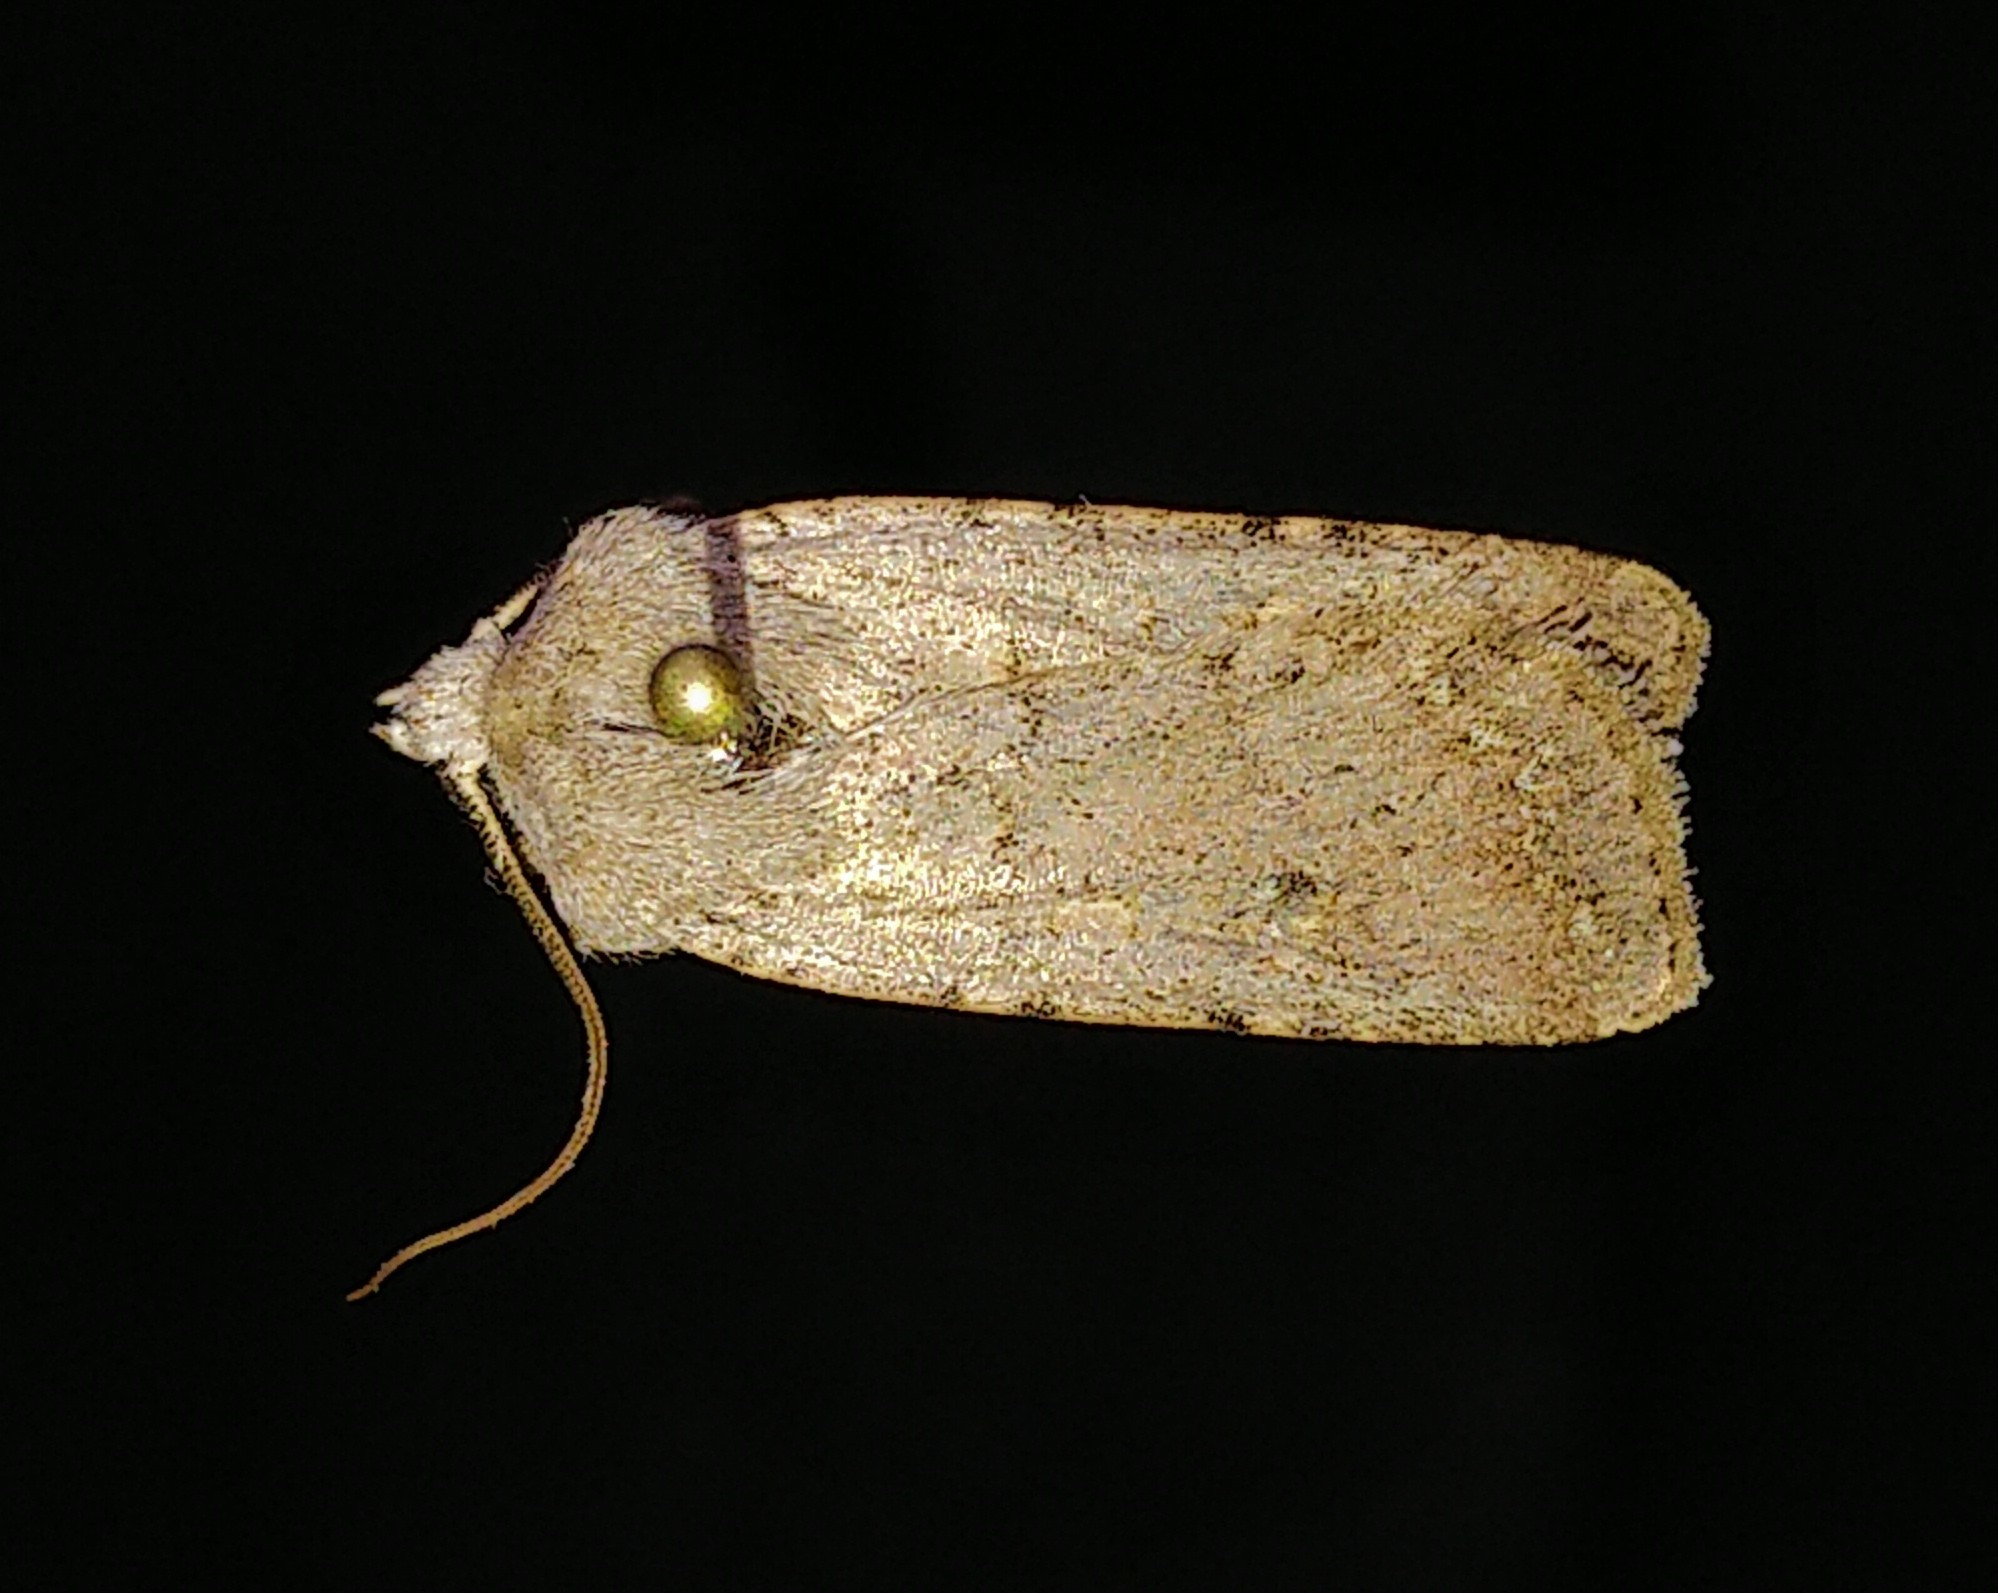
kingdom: Animalia
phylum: Arthropoda
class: Insecta
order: Lepidoptera
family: Noctuidae
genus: Euxoa
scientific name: Euxoa scandens
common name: White cutworm
